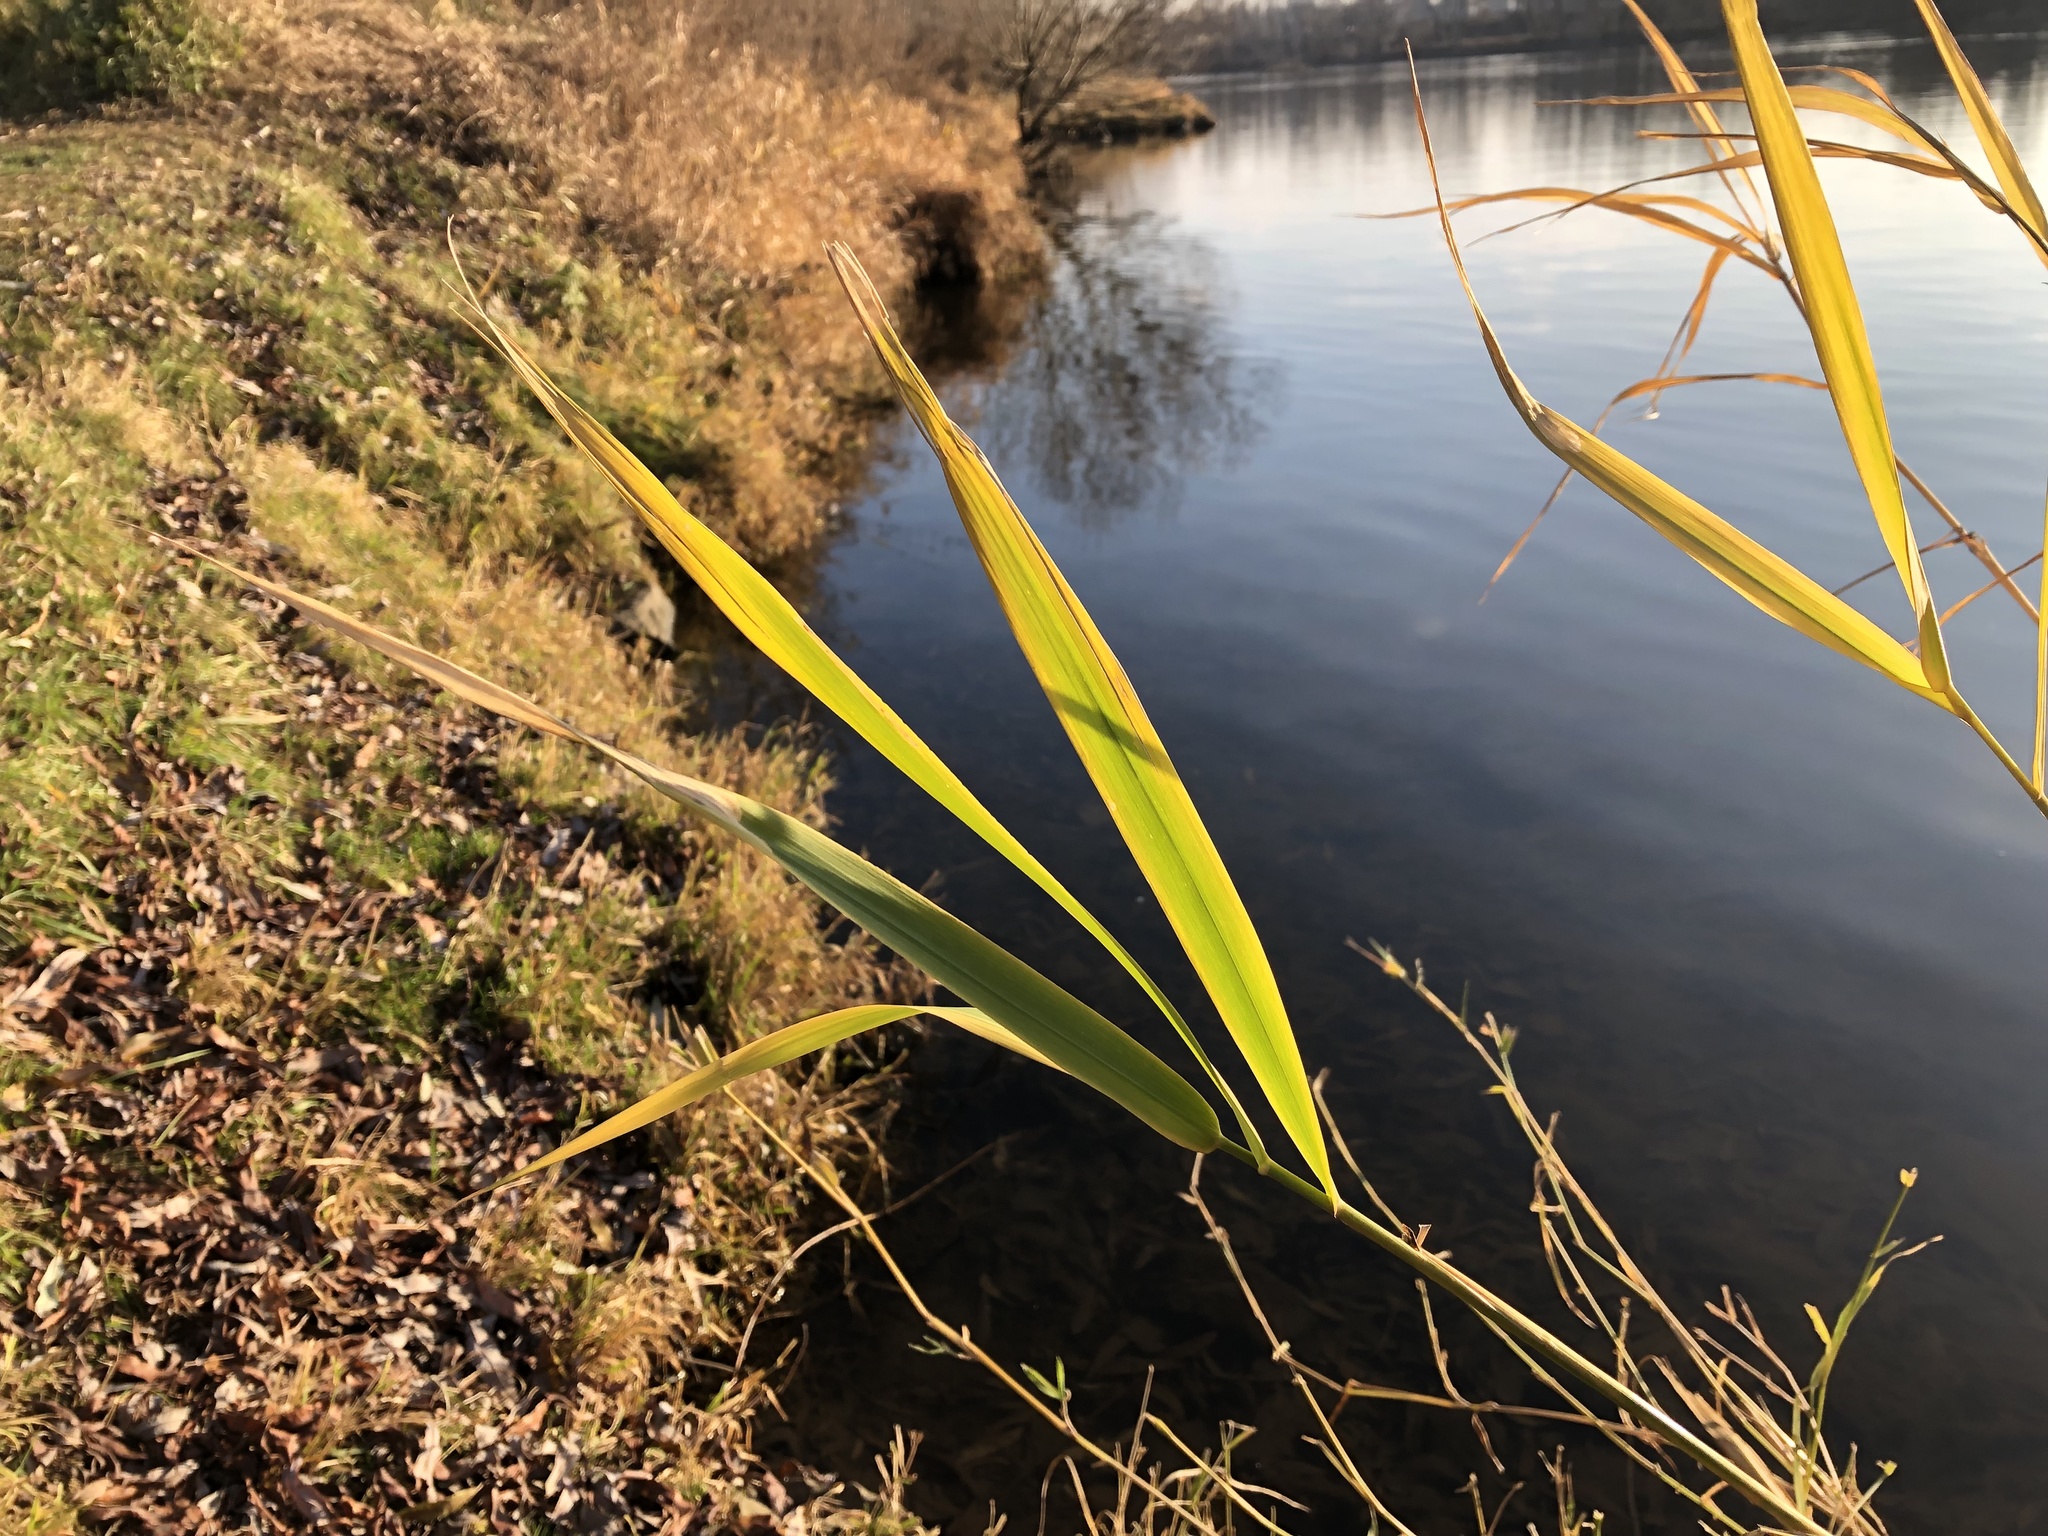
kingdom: Plantae
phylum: Tracheophyta
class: Liliopsida
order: Poales
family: Poaceae
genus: Phragmites
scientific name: Phragmites australis
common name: Common reed
